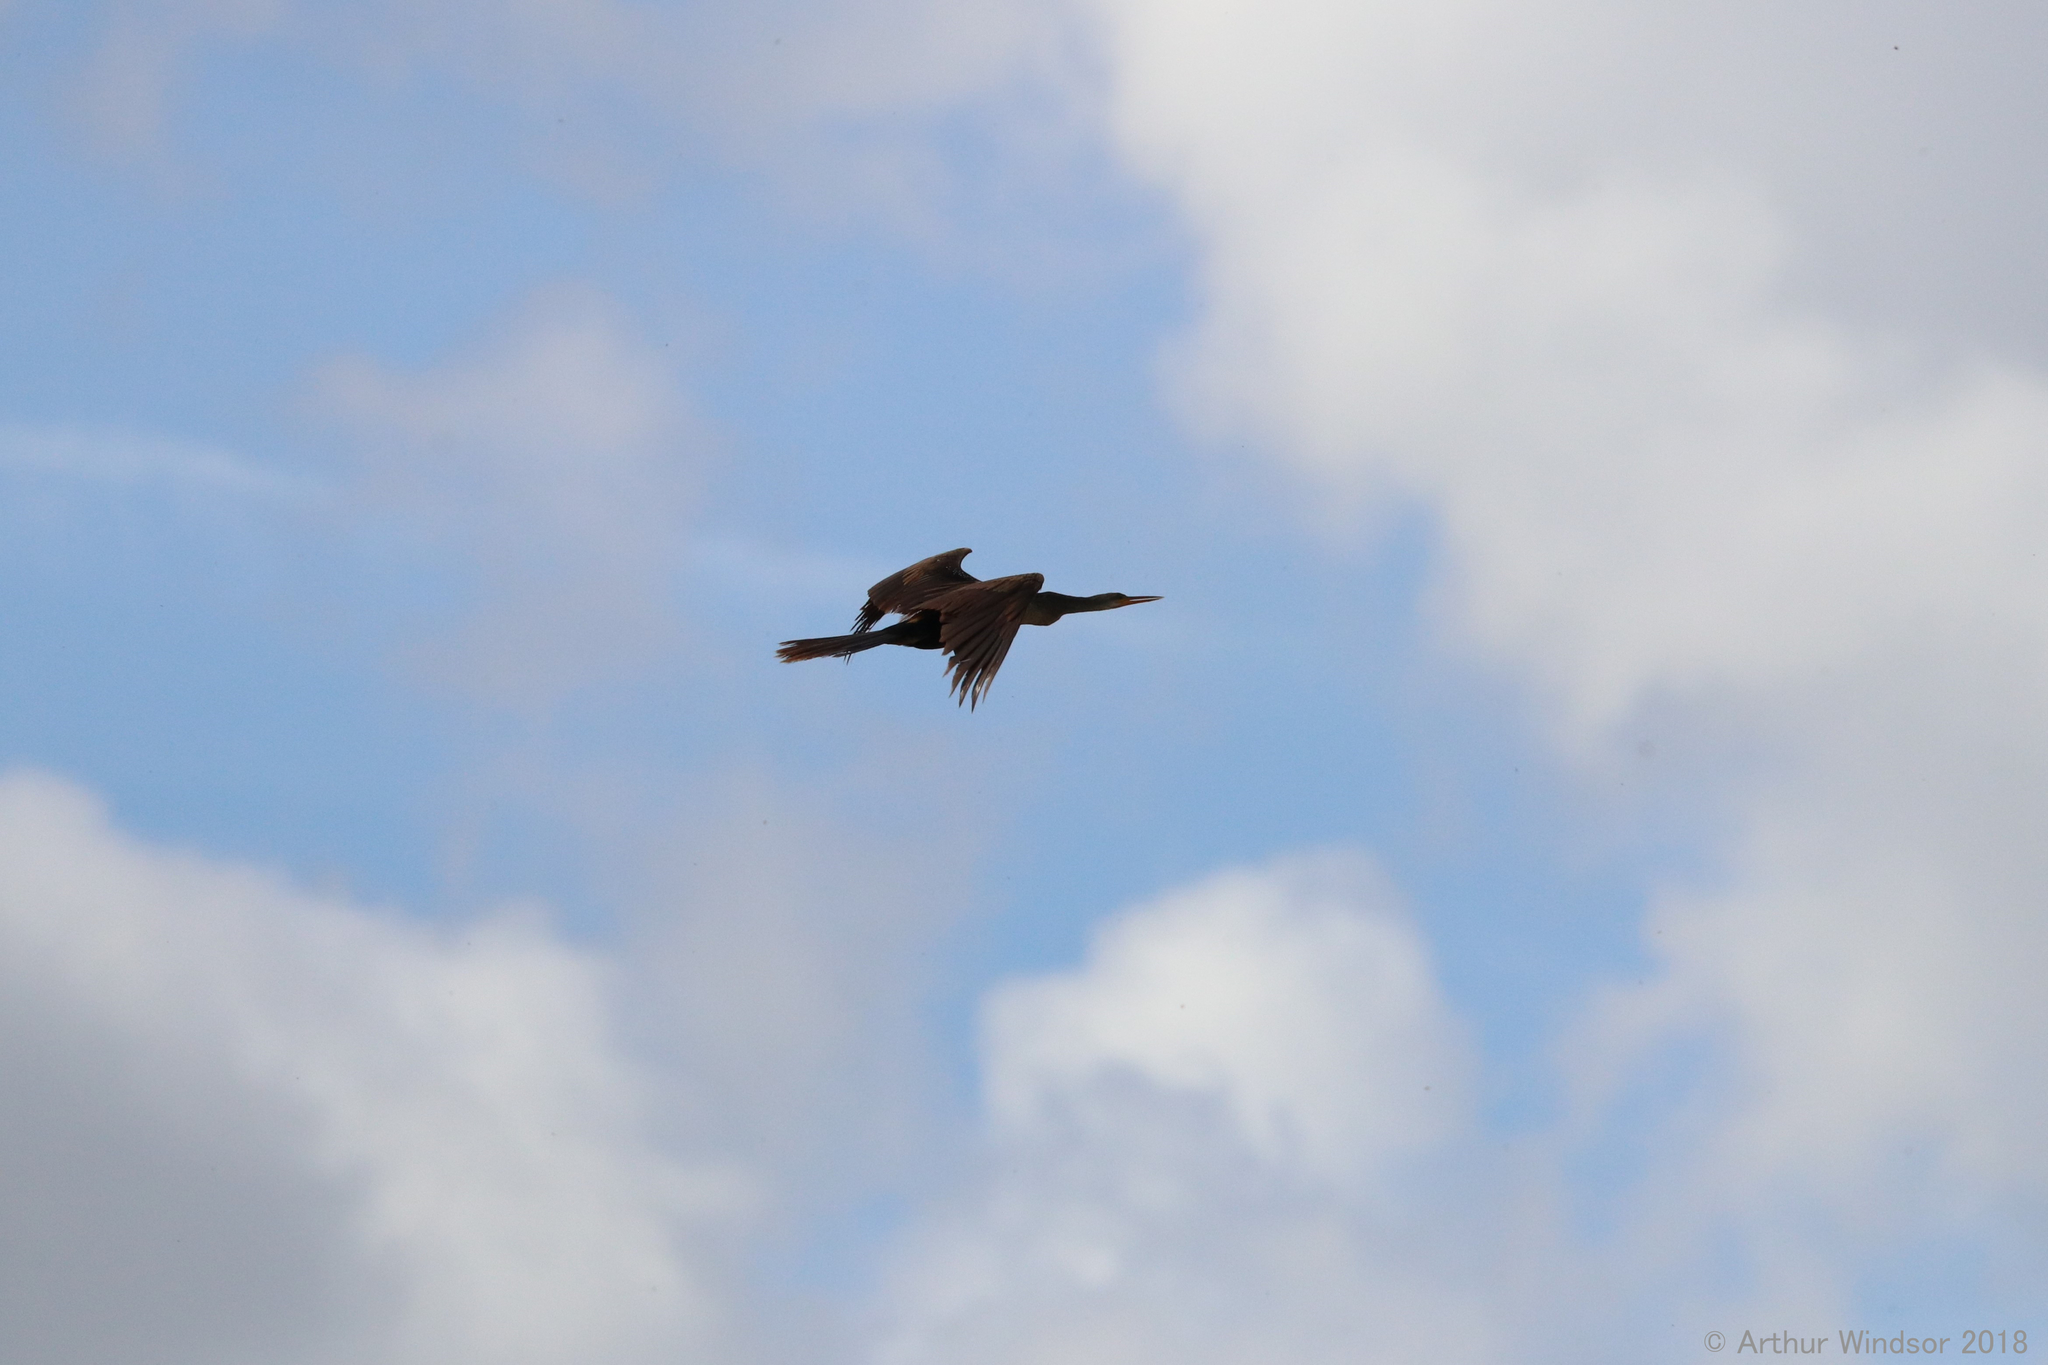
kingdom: Animalia
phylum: Chordata
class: Aves
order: Suliformes
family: Anhingidae
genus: Anhinga
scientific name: Anhinga anhinga
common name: Anhinga
